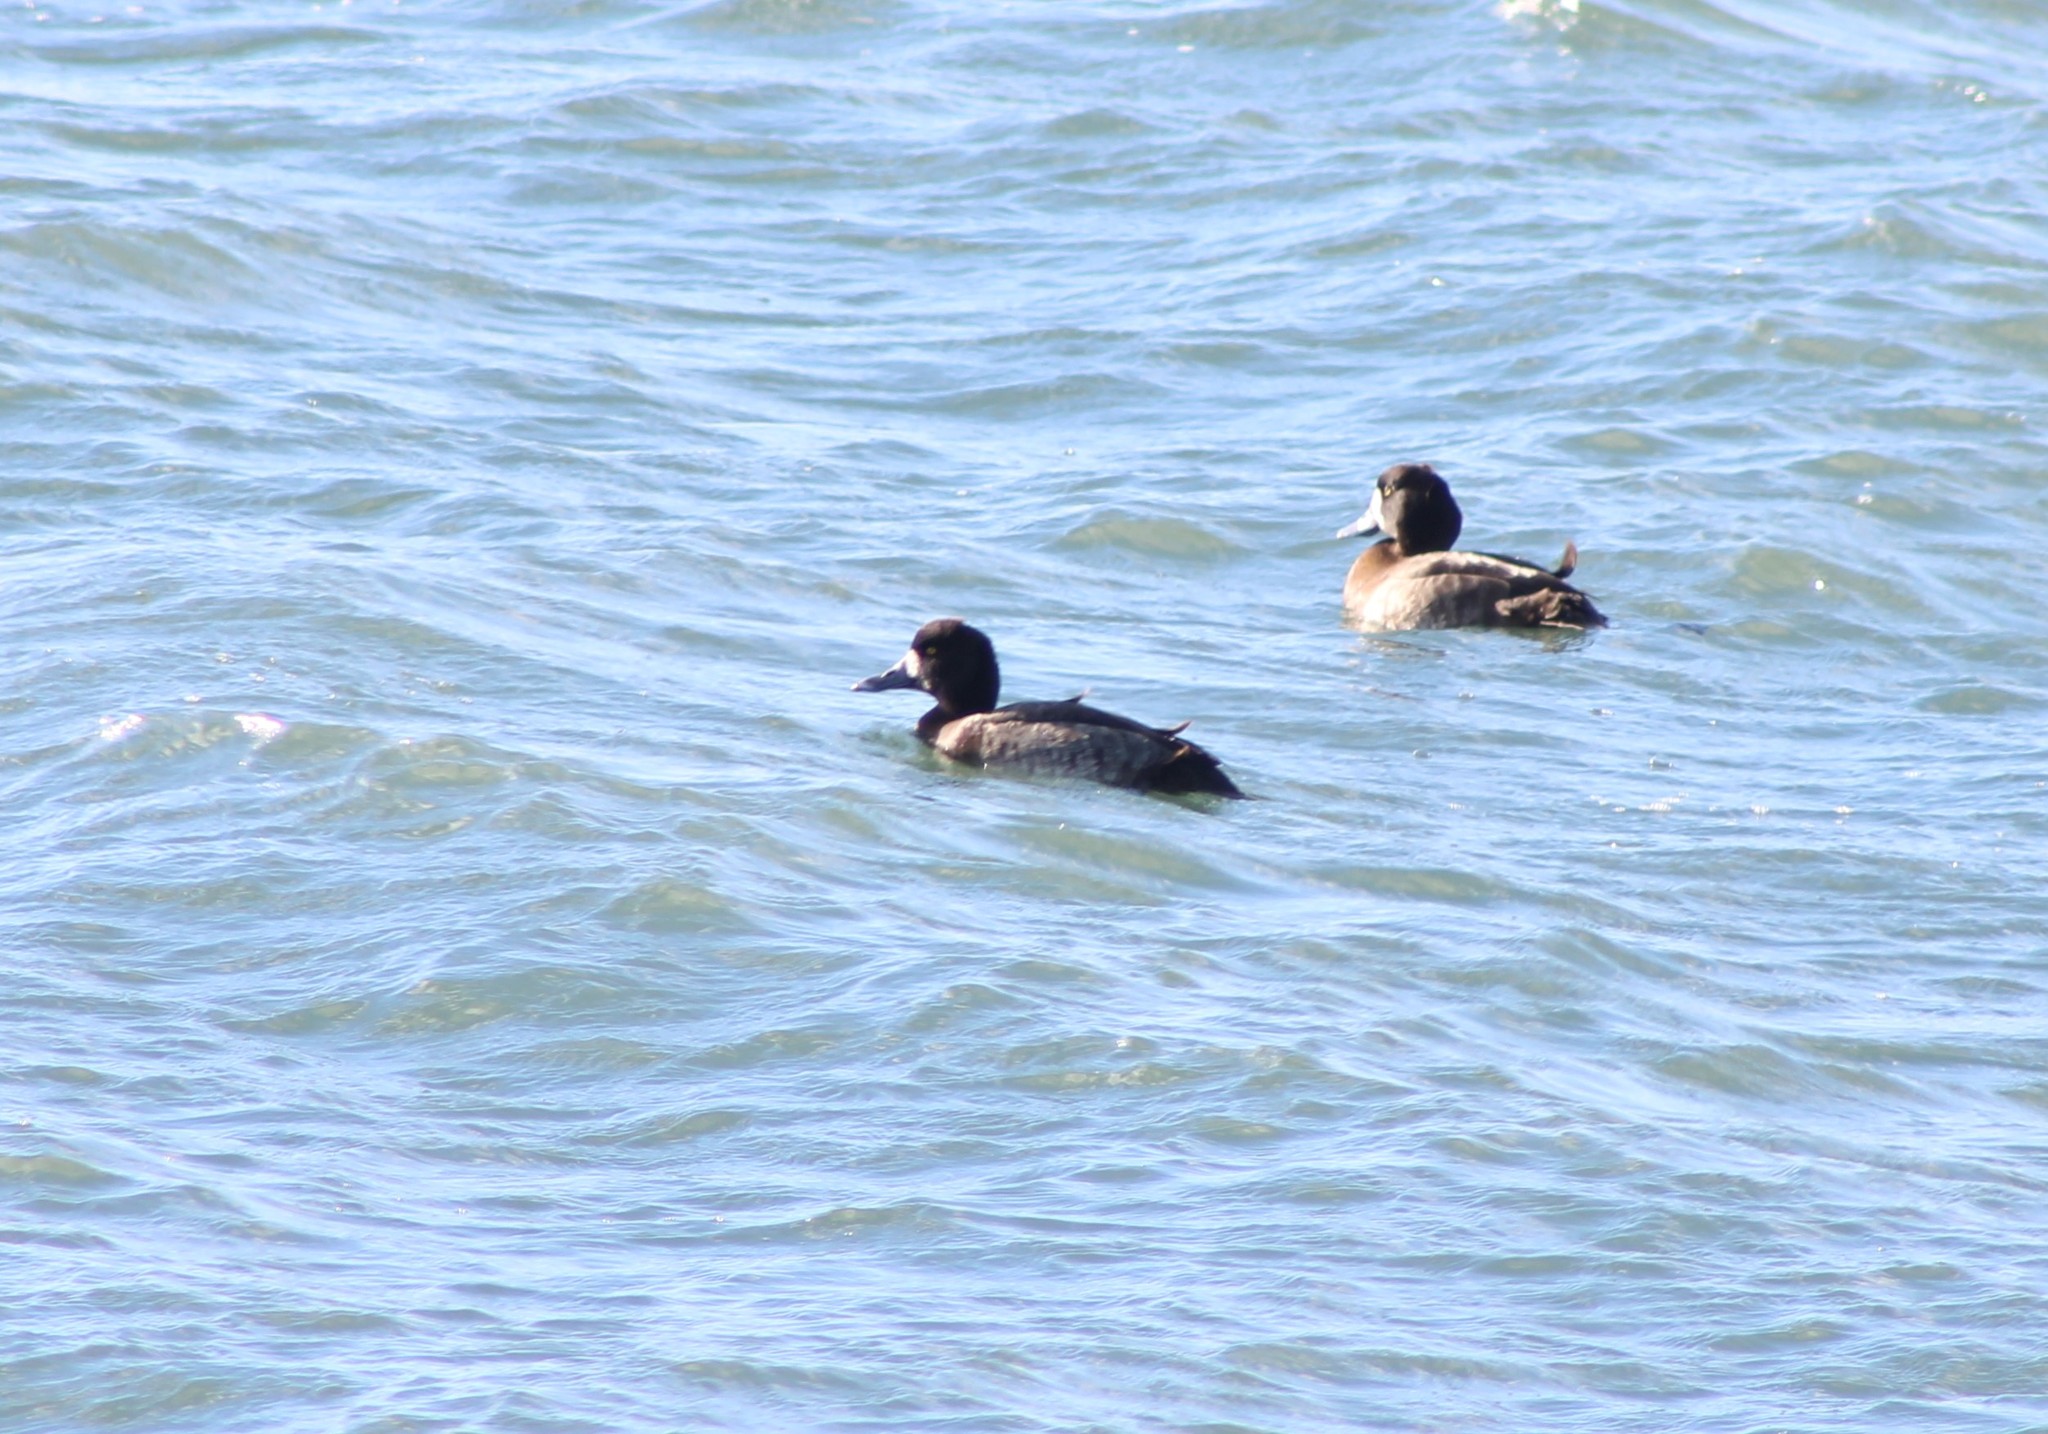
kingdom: Animalia
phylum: Chordata
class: Aves
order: Anseriformes
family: Anatidae
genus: Aythya
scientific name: Aythya marila
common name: Greater scaup
